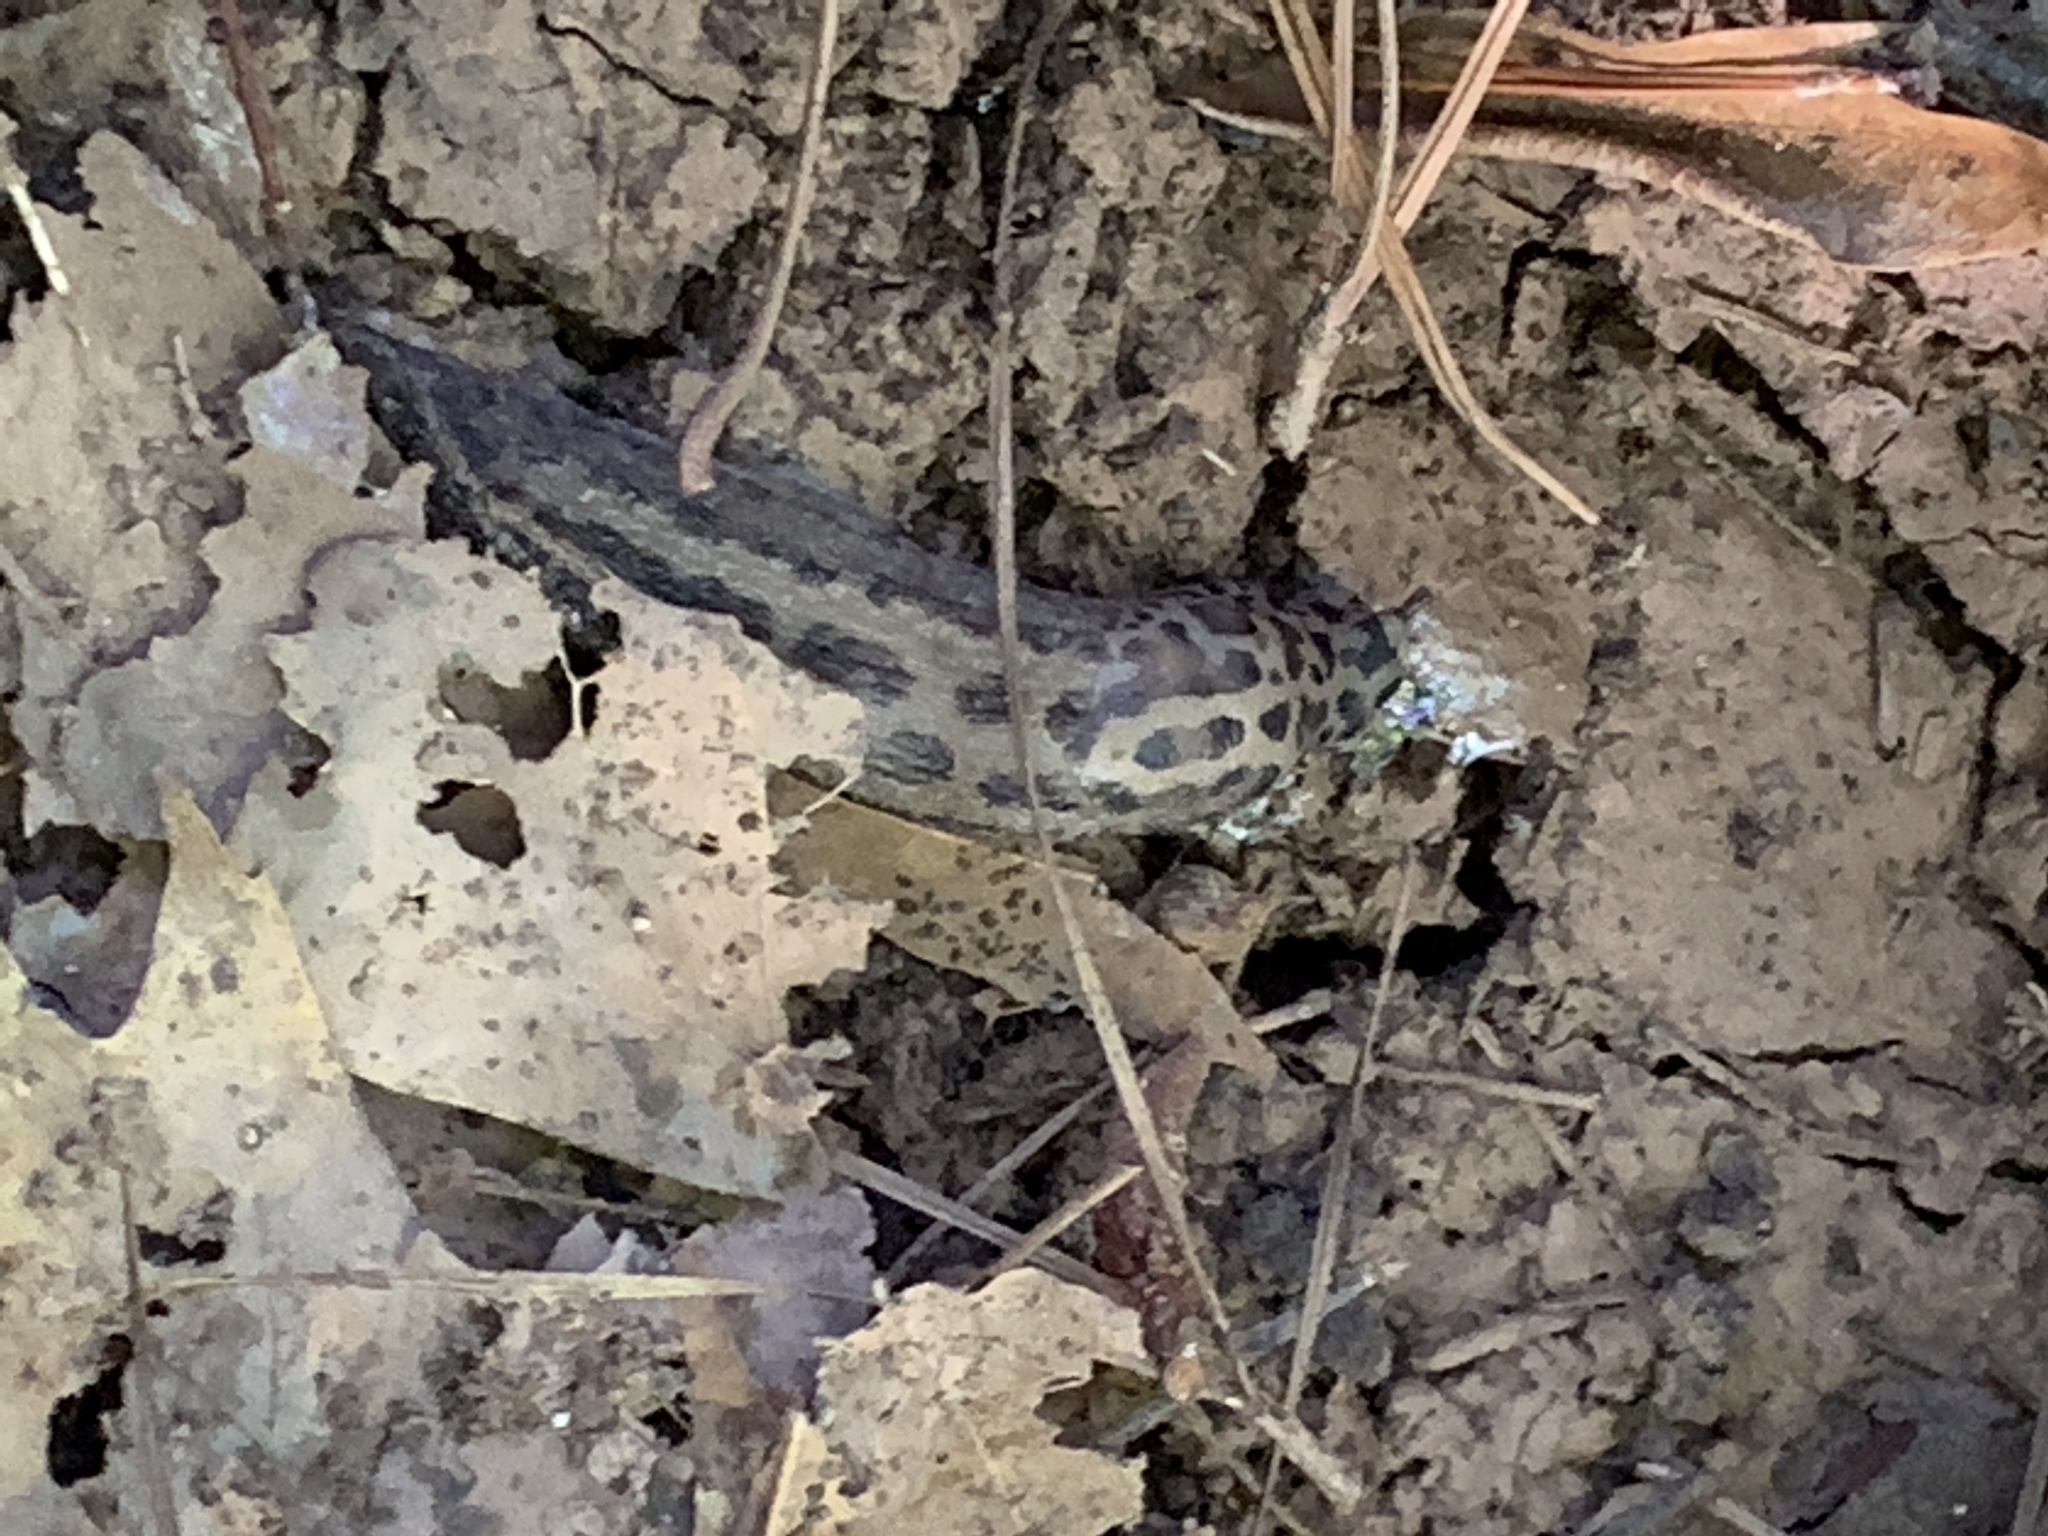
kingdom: Animalia
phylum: Mollusca
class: Gastropoda
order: Stylommatophora
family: Limacidae
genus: Limax
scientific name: Limax maximus
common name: Great grey slug
